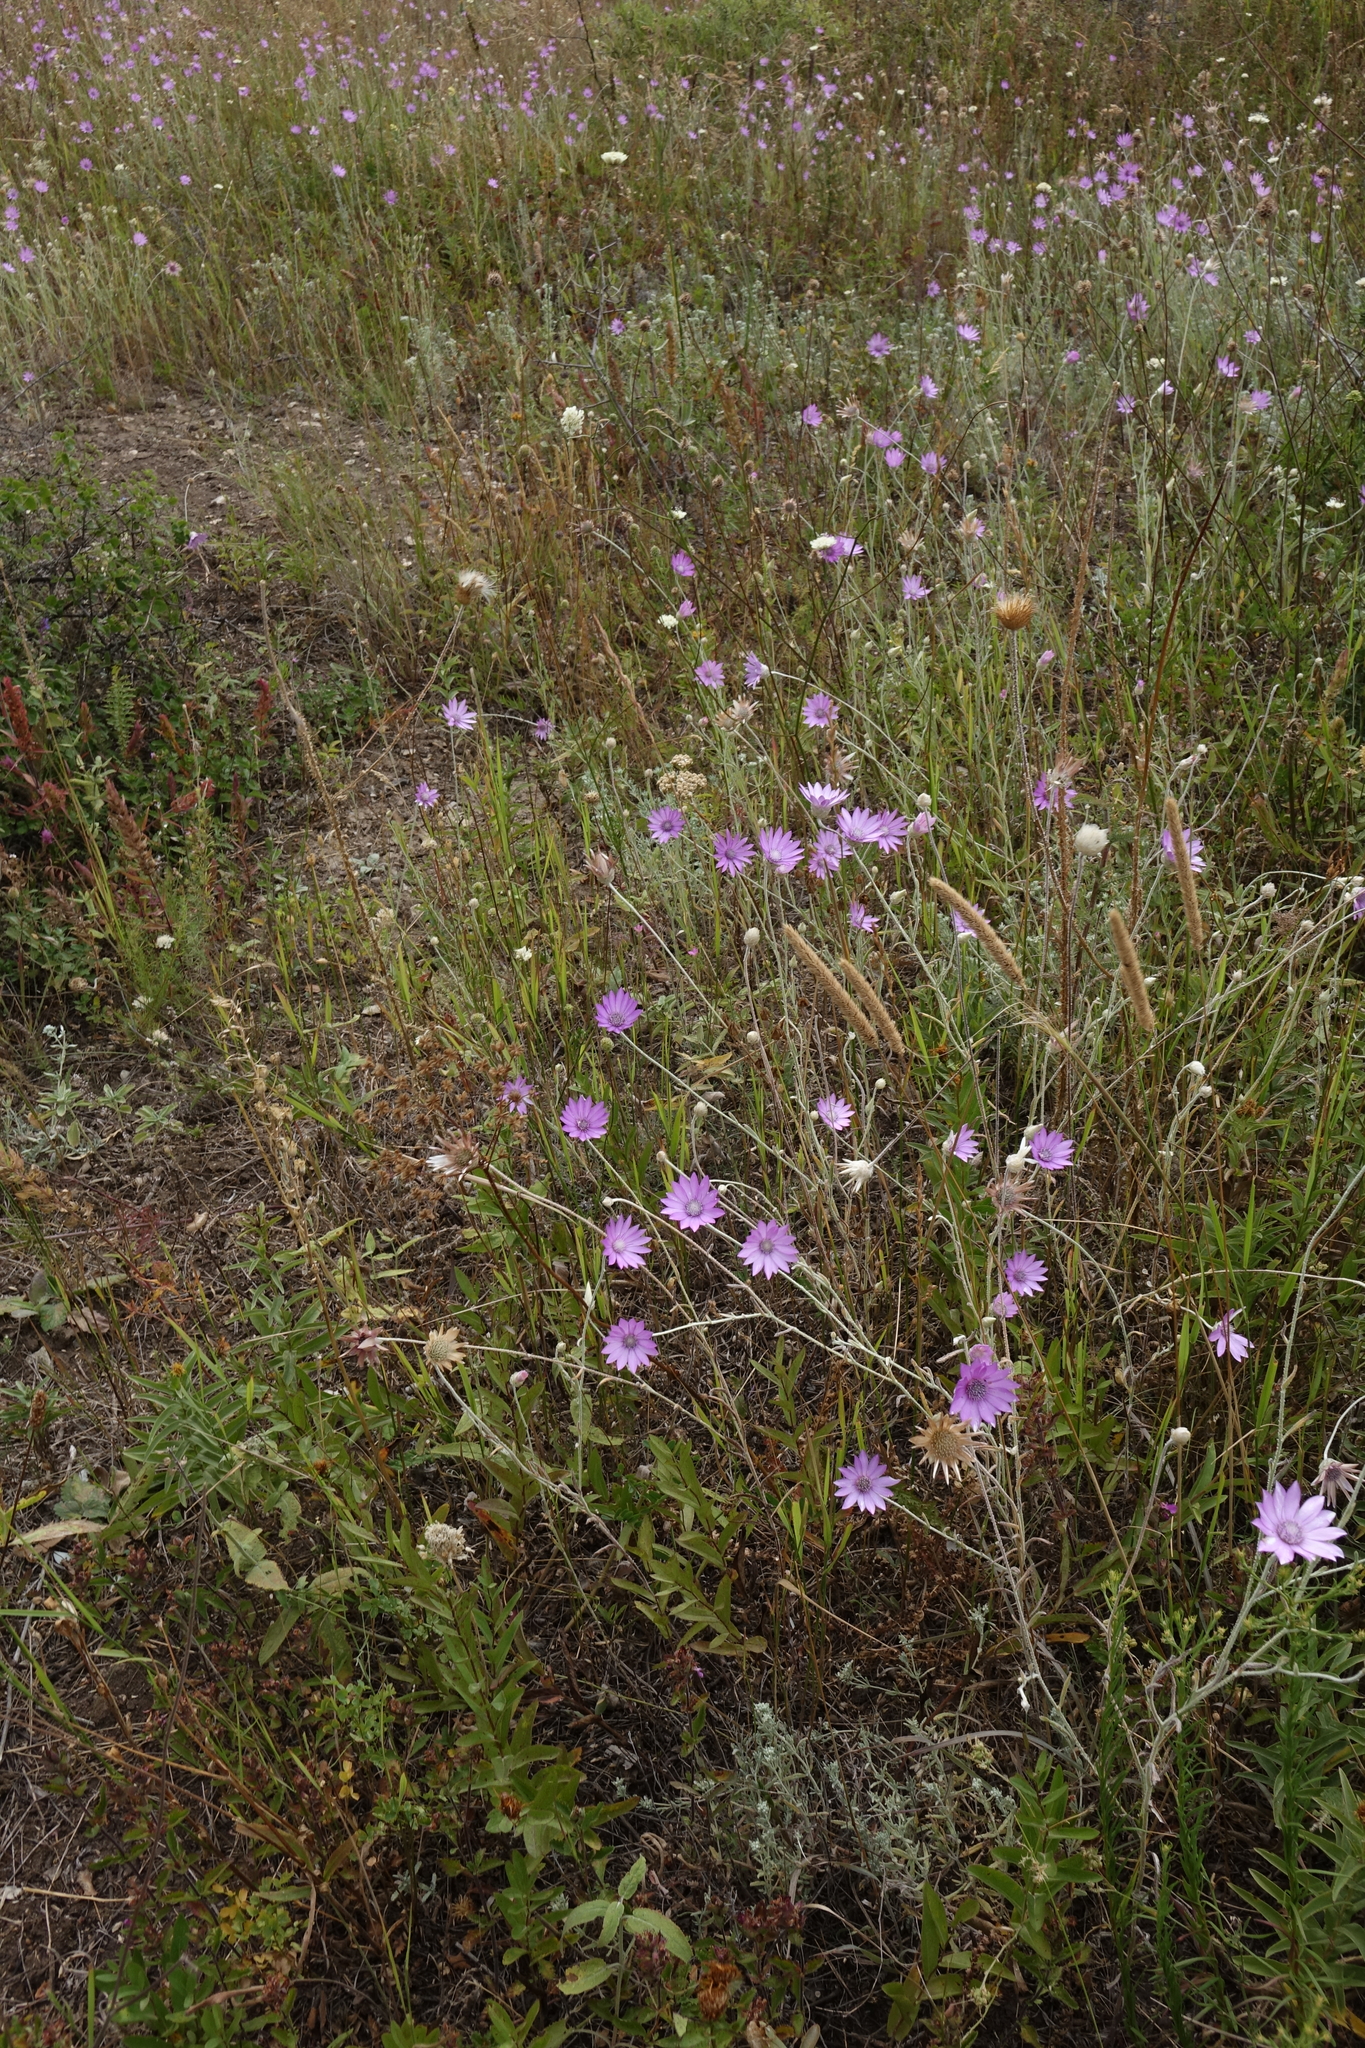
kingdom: Plantae
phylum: Tracheophyta
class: Magnoliopsida
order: Asterales
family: Asteraceae
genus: Xeranthemum
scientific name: Xeranthemum annuum
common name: Immortelle
